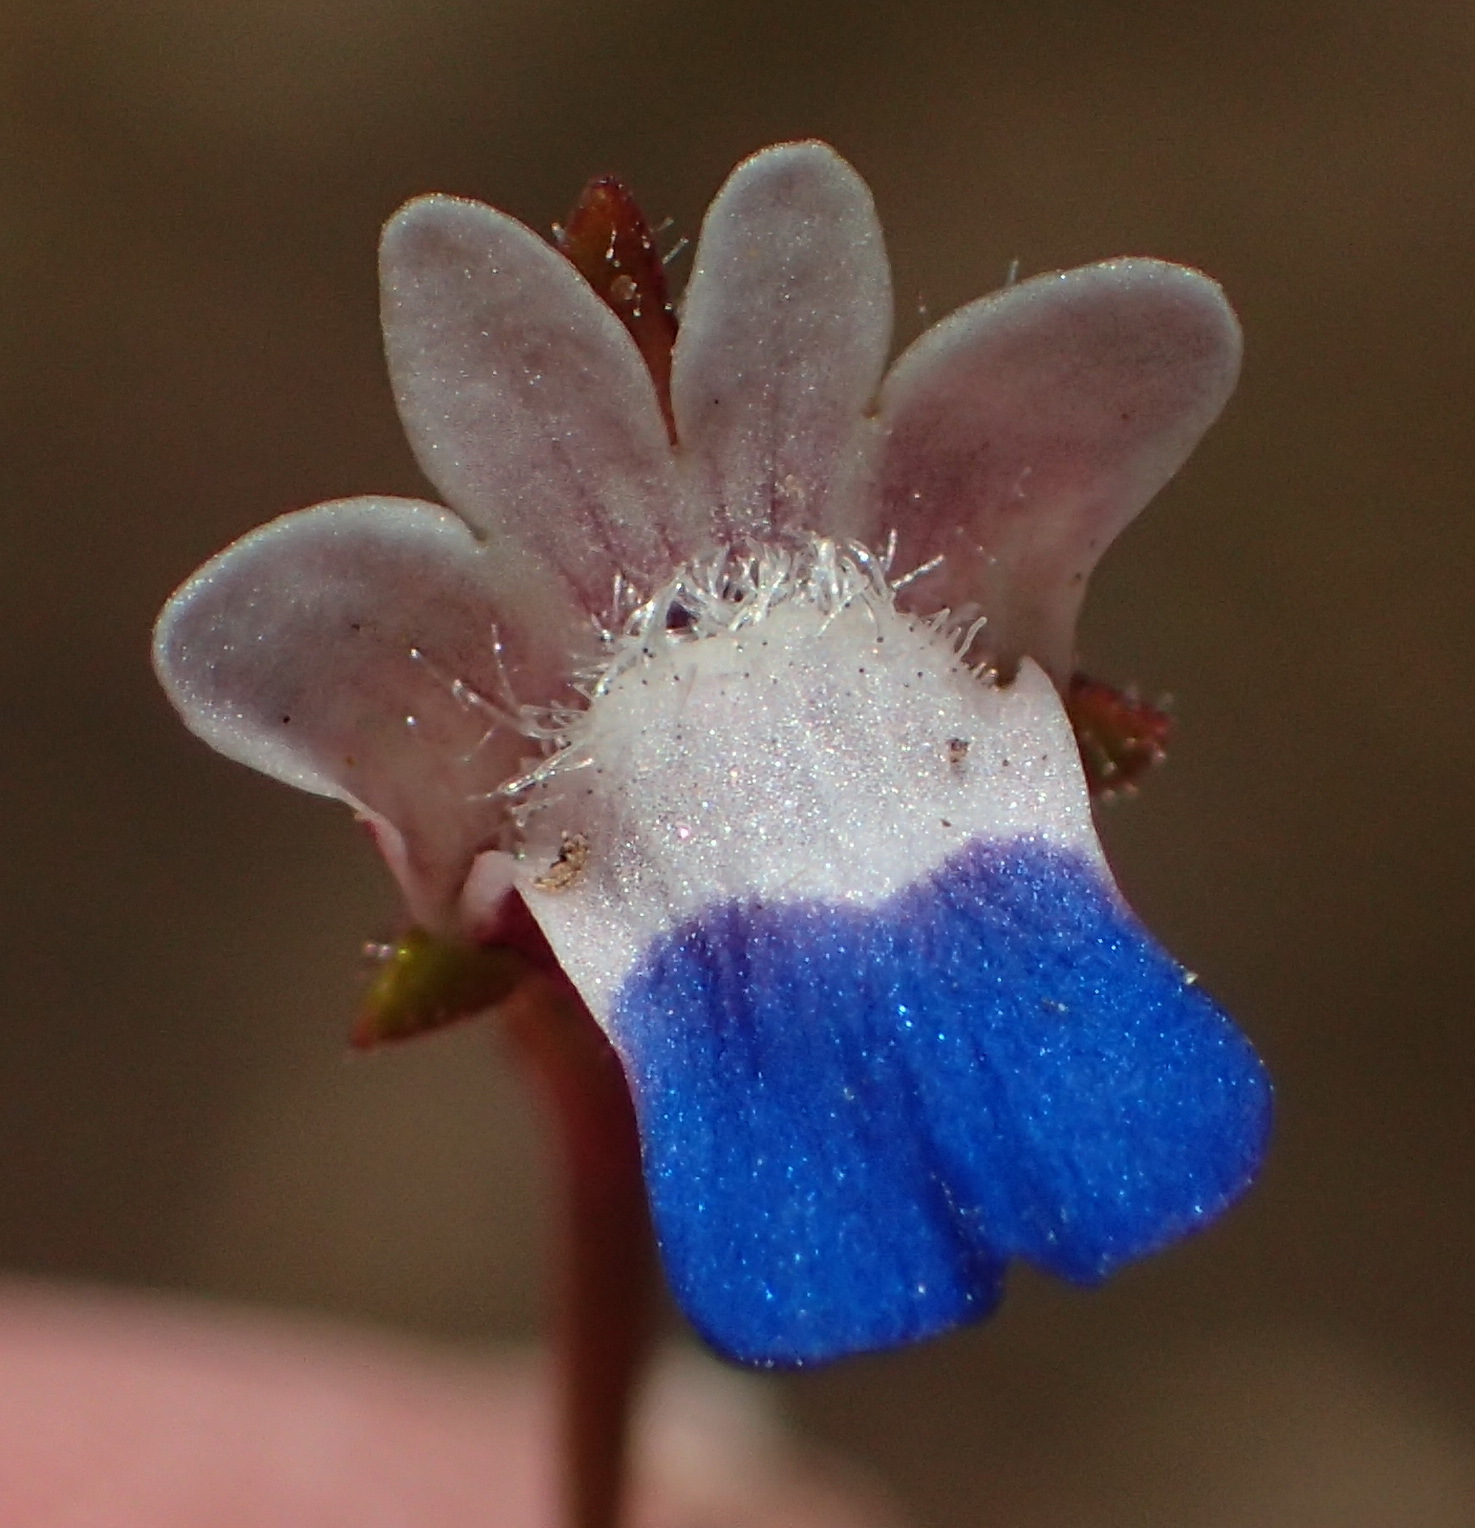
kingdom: Plantae
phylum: Tracheophyta
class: Magnoliopsida
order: Lamiales
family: Scrophulariaceae
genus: Nemesia
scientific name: Nemesia barbata
